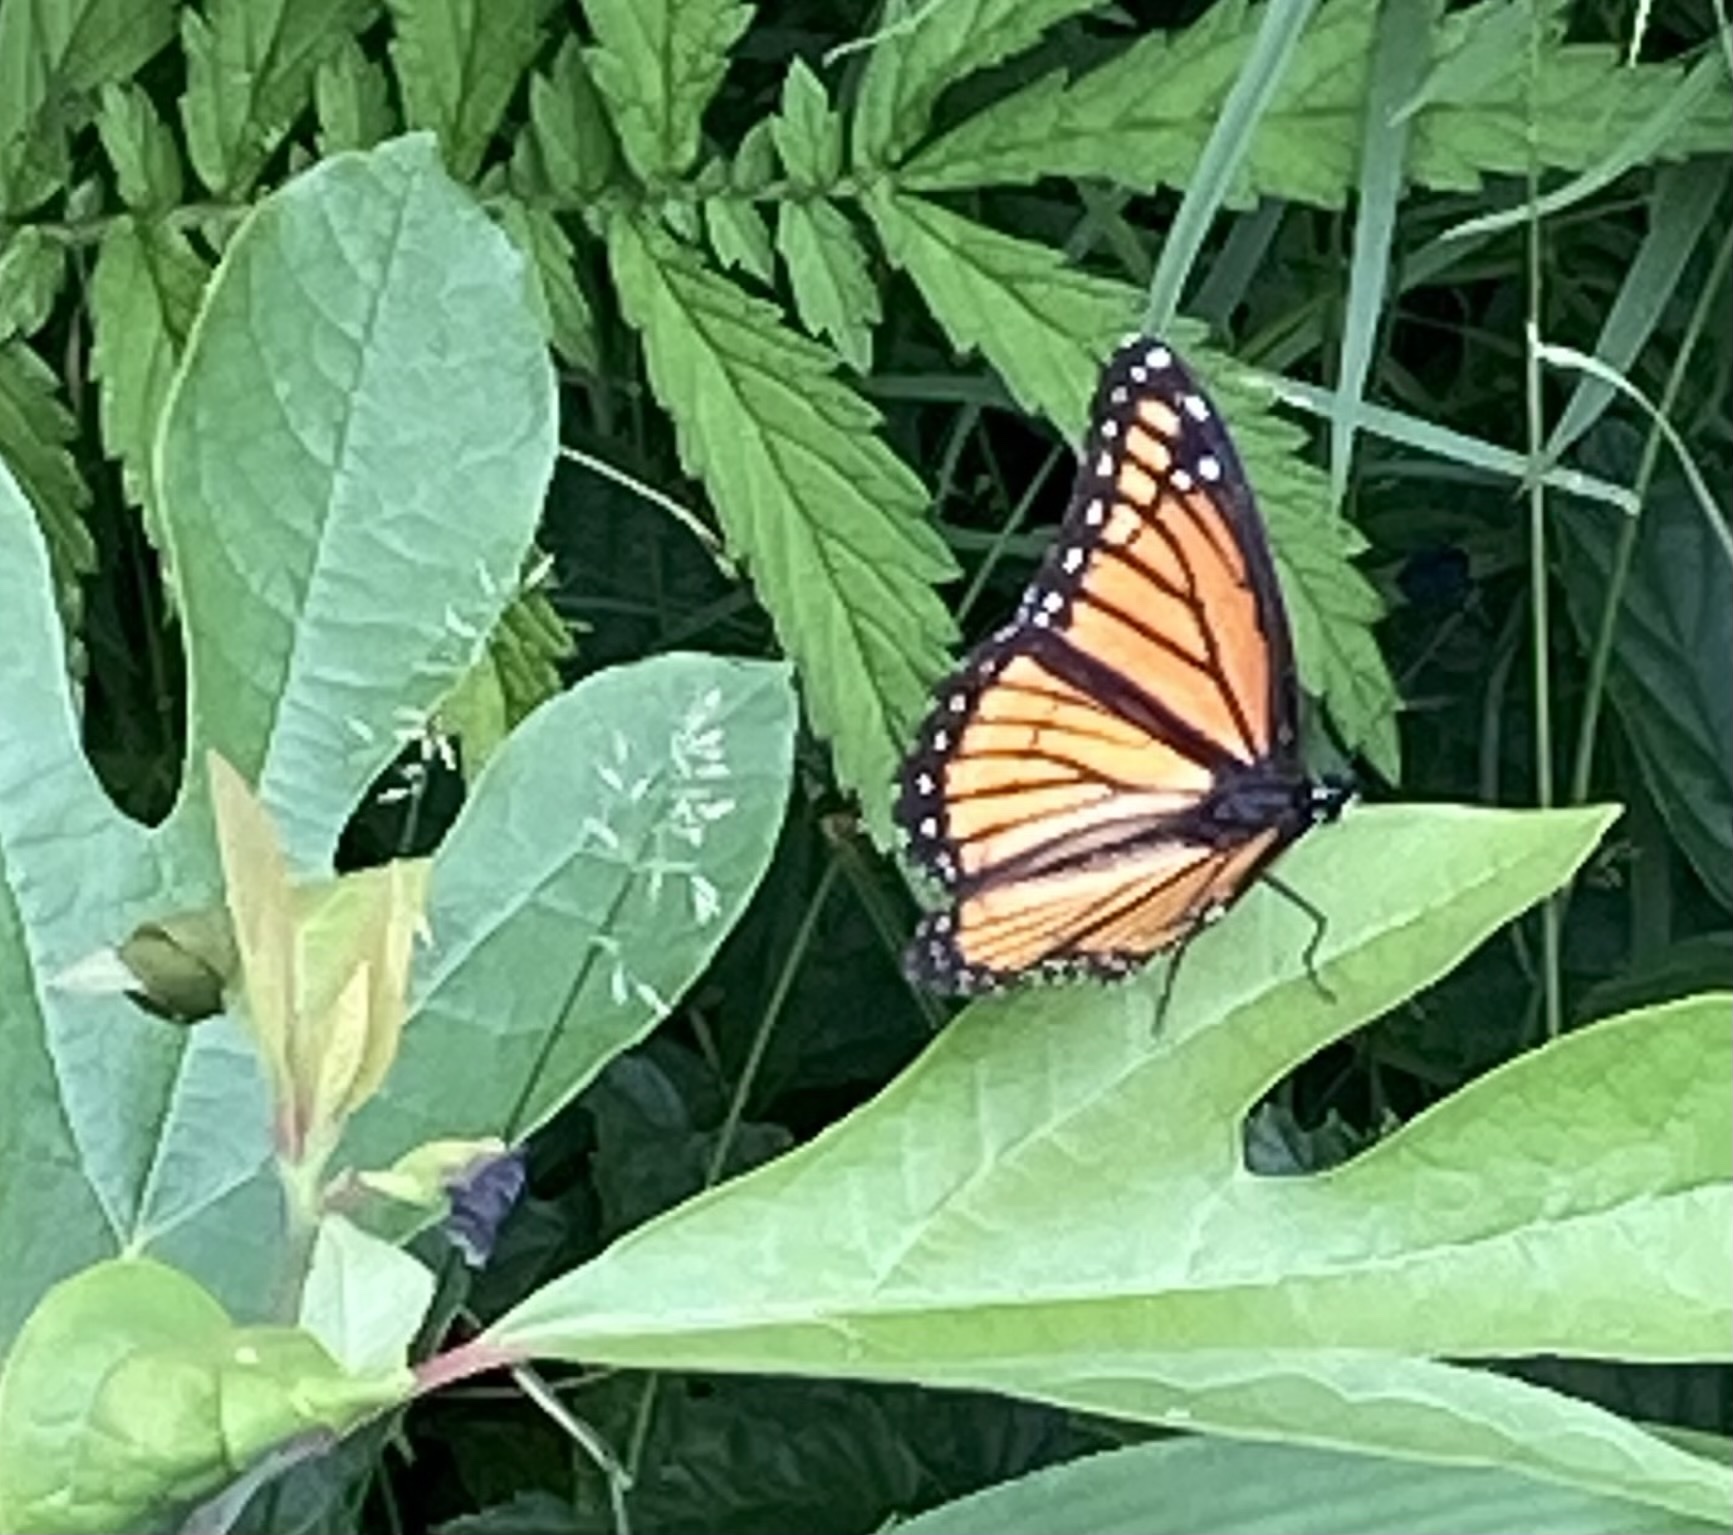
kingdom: Animalia
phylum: Arthropoda
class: Insecta
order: Lepidoptera
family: Nymphalidae
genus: Limenitis
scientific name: Limenitis archippus
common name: Viceroy
